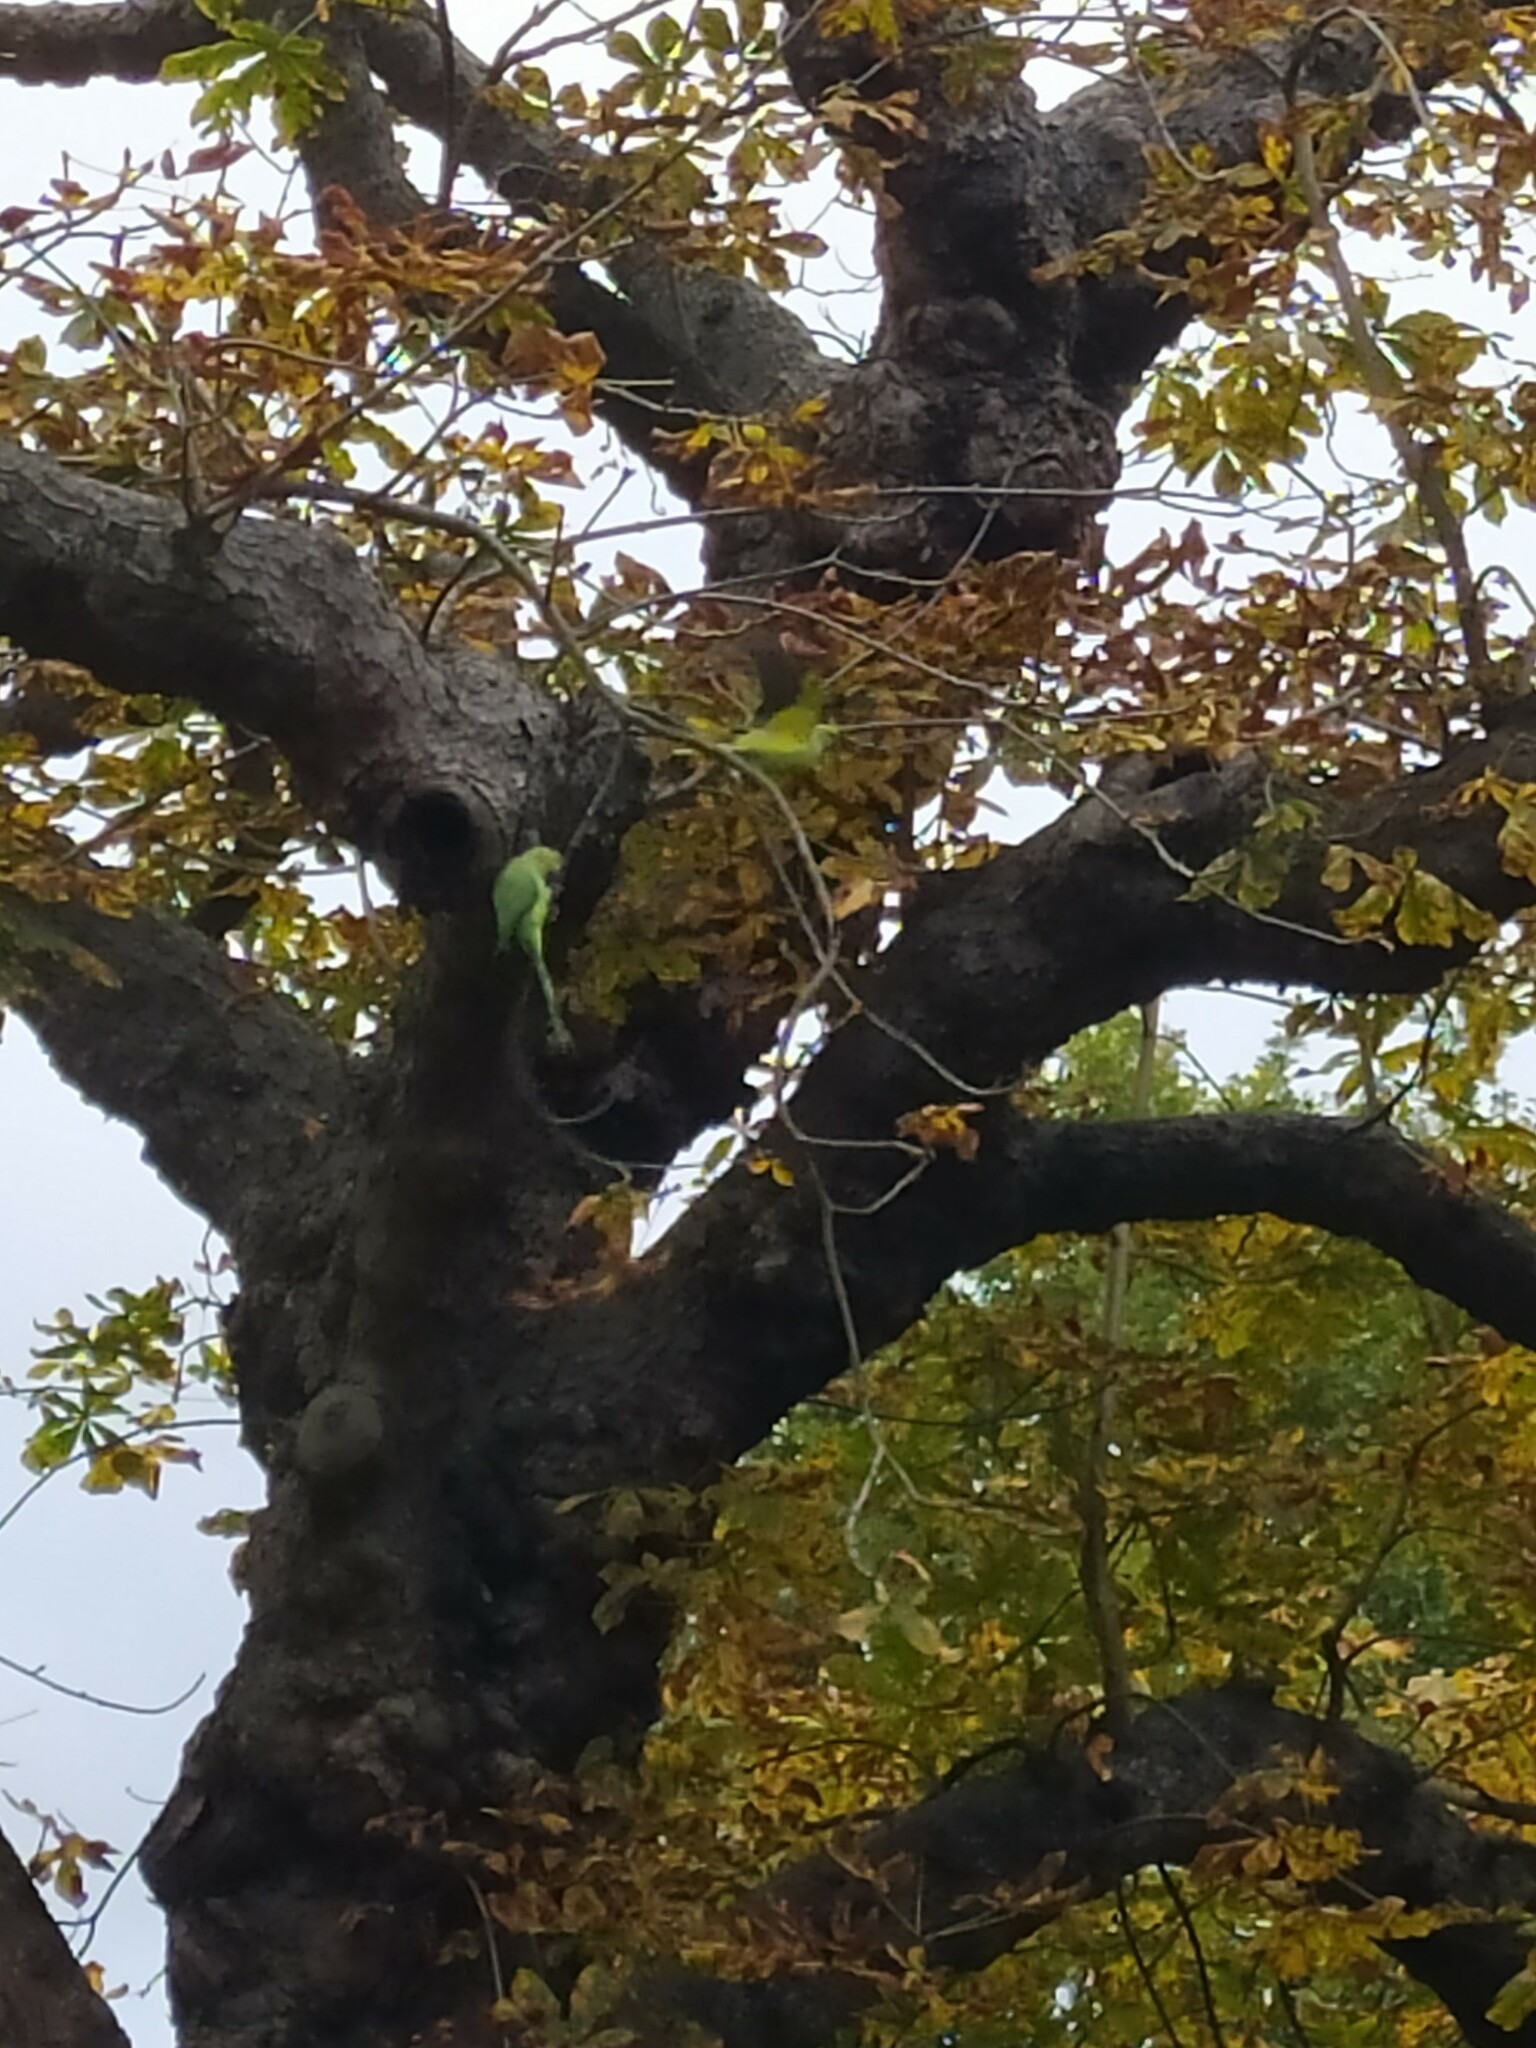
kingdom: Animalia
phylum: Chordata
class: Aves
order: Psittaciformes
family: Psittacidae
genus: Psittacula
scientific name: Psittacula krameri
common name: Rose-ringed parakeet
